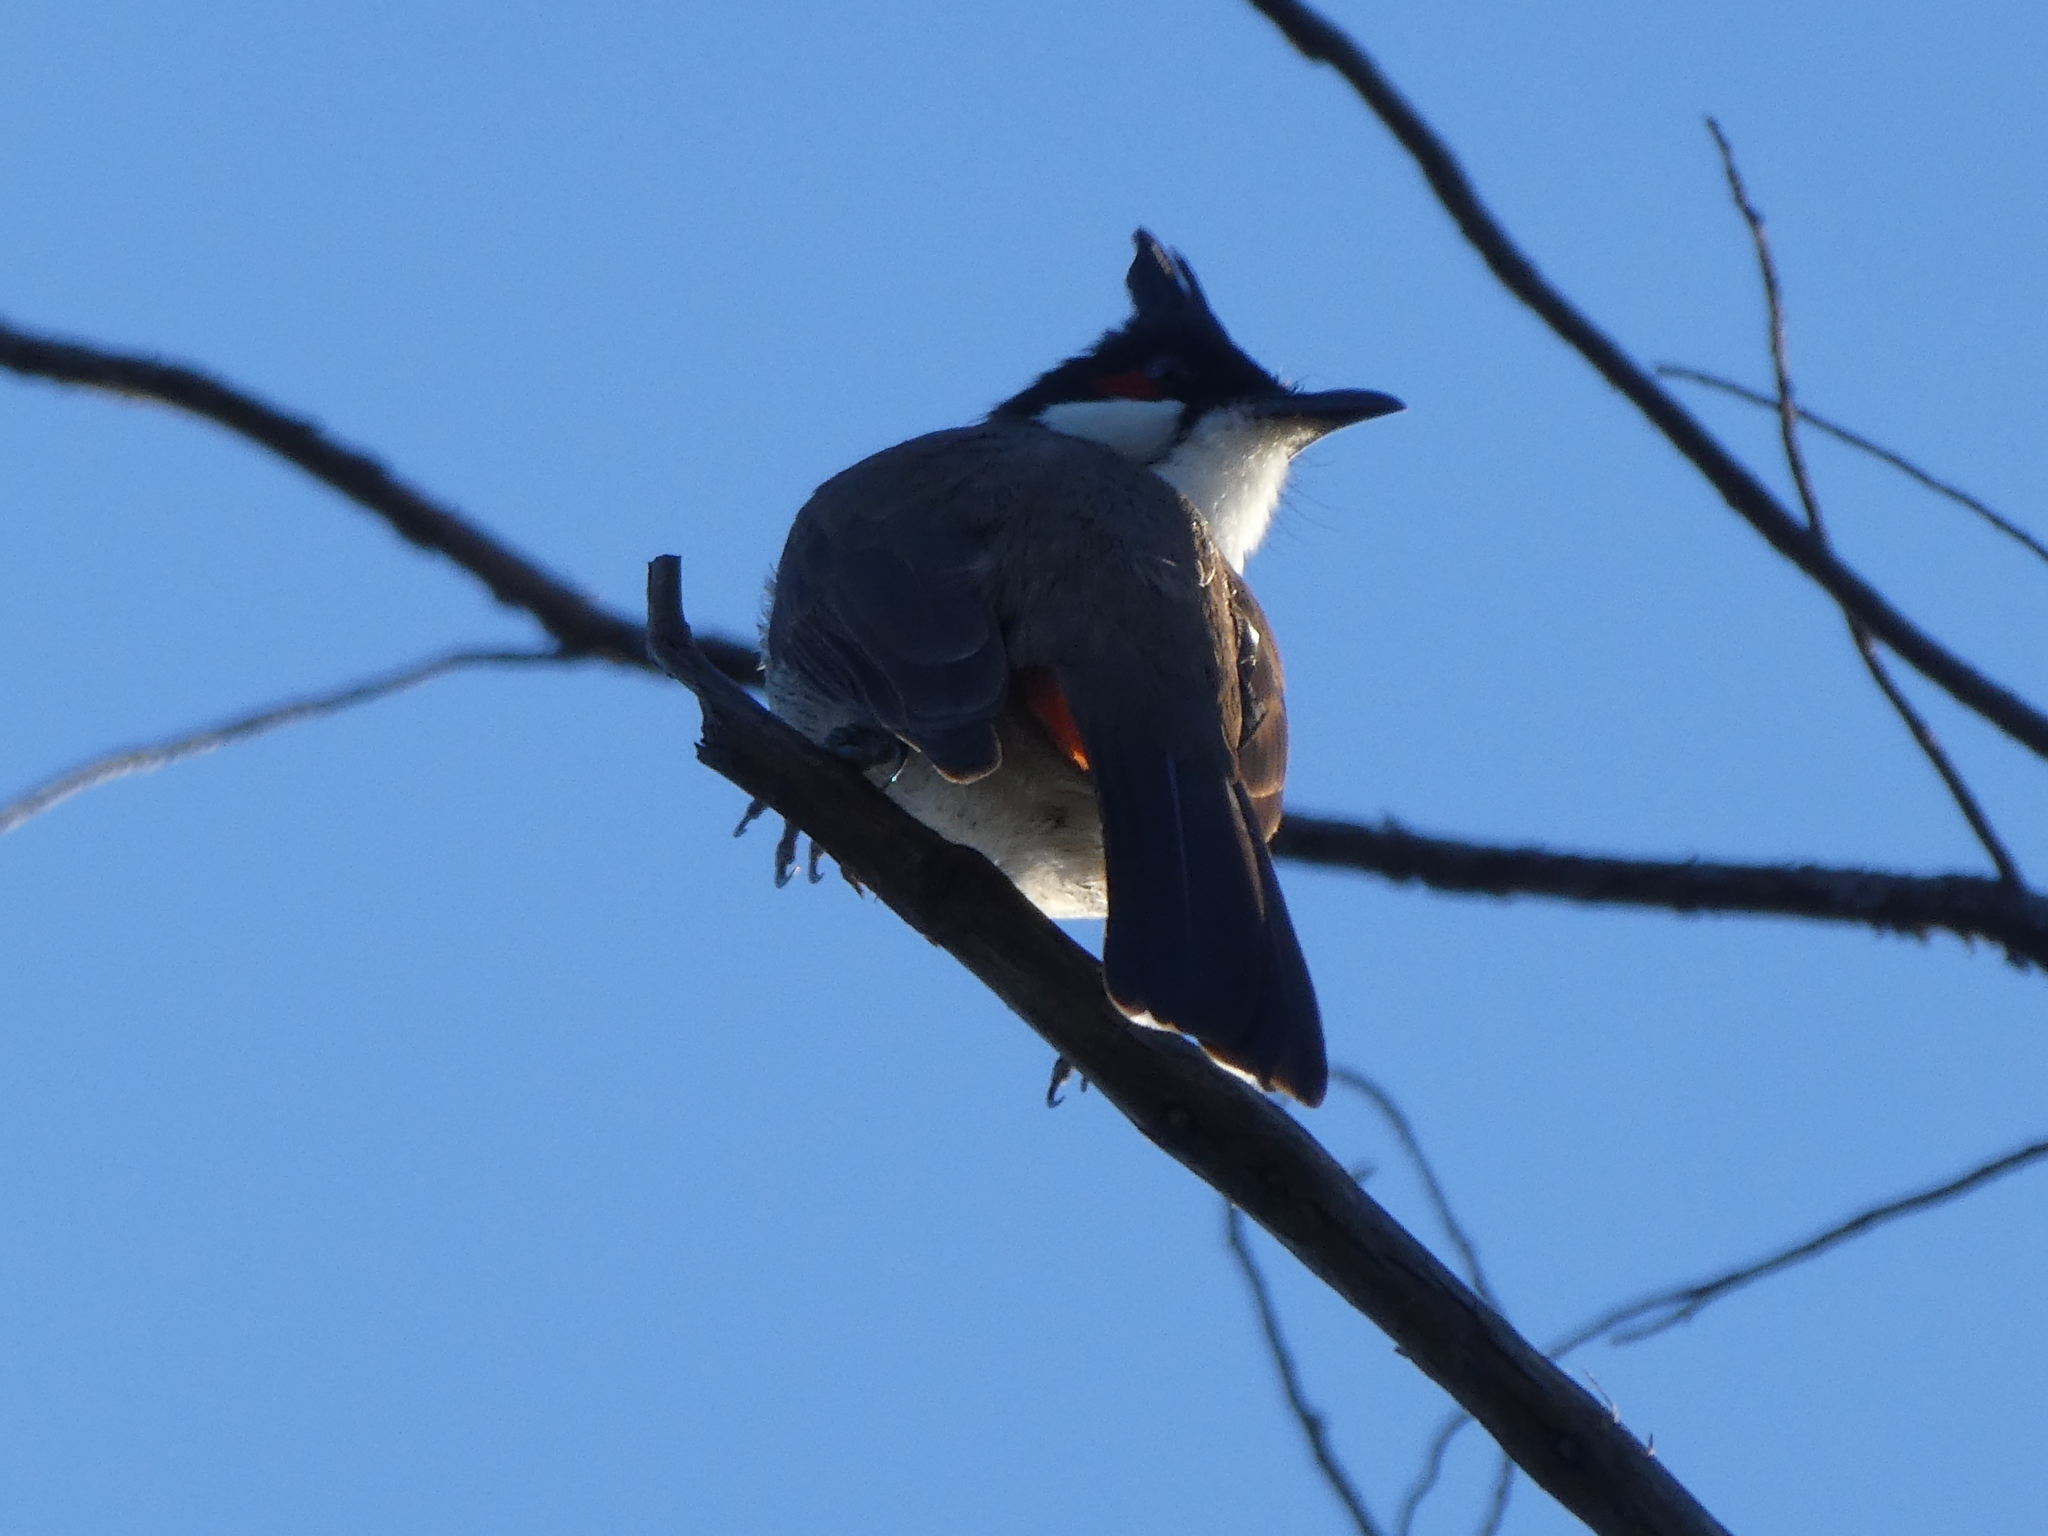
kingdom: Animalia
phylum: Chordata
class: Aves
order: Passeriformes
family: Pycnonotidae
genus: Pycnonotus
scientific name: Pycnonotus jocosus
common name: Red-whiskered bulbul
